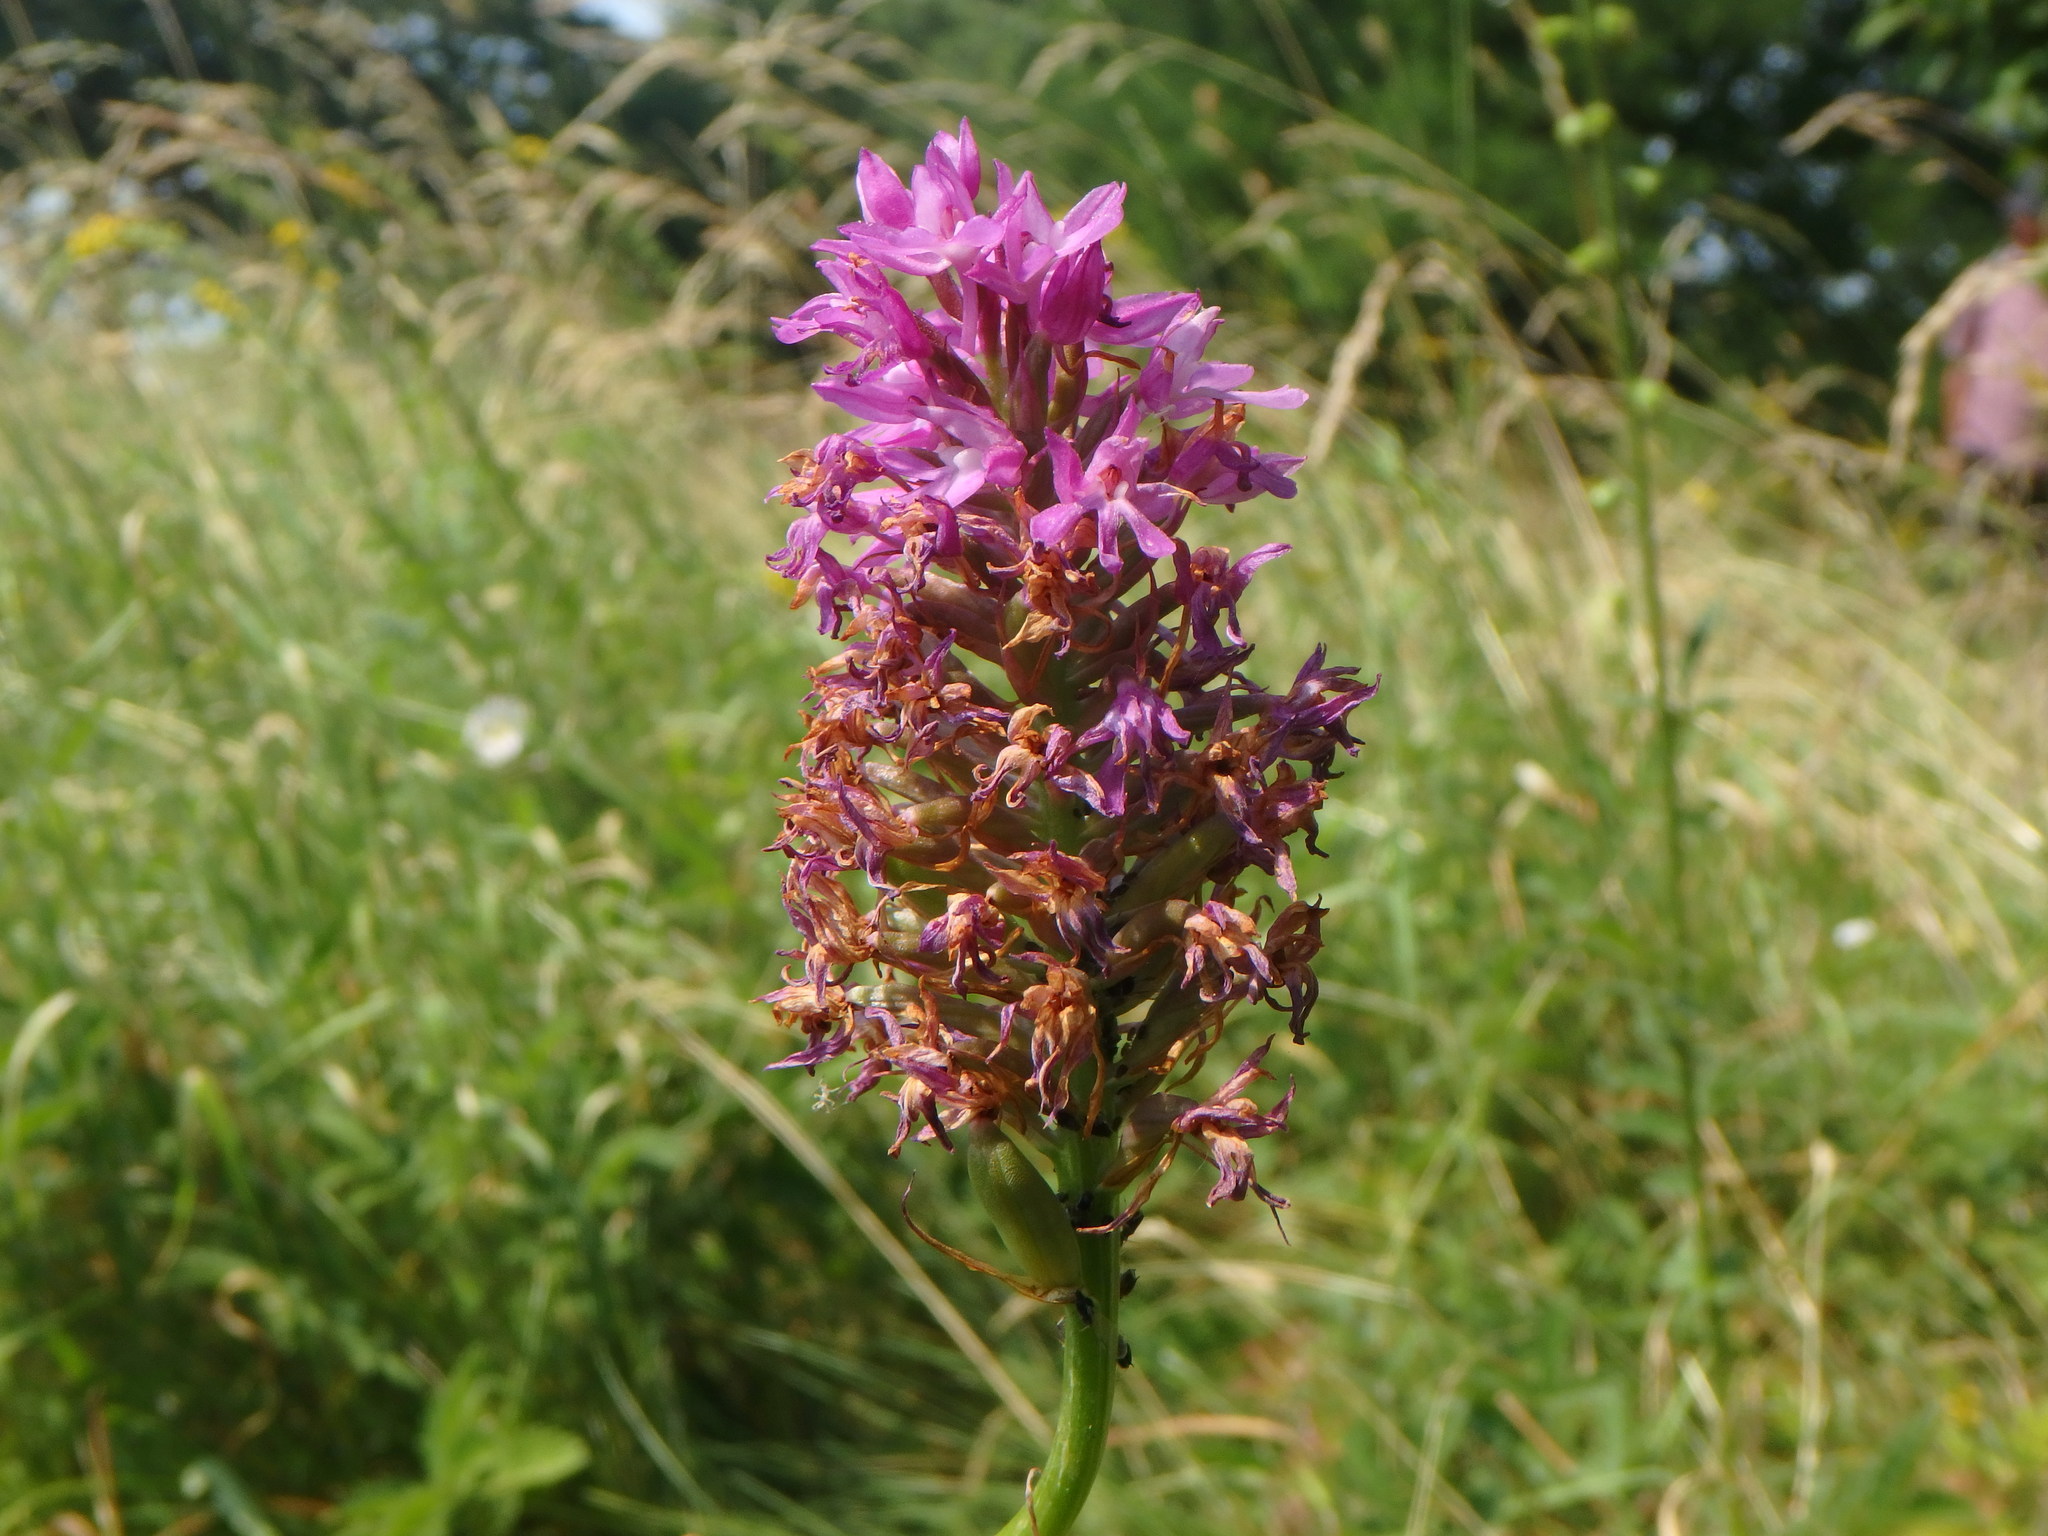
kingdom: Plantae
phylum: Tracheophyta
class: Liliopsida
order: Asparagales
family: Orchidaceae
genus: Anacamptis
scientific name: Anacamptis pyramidalis
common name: Pyramidal orchid
